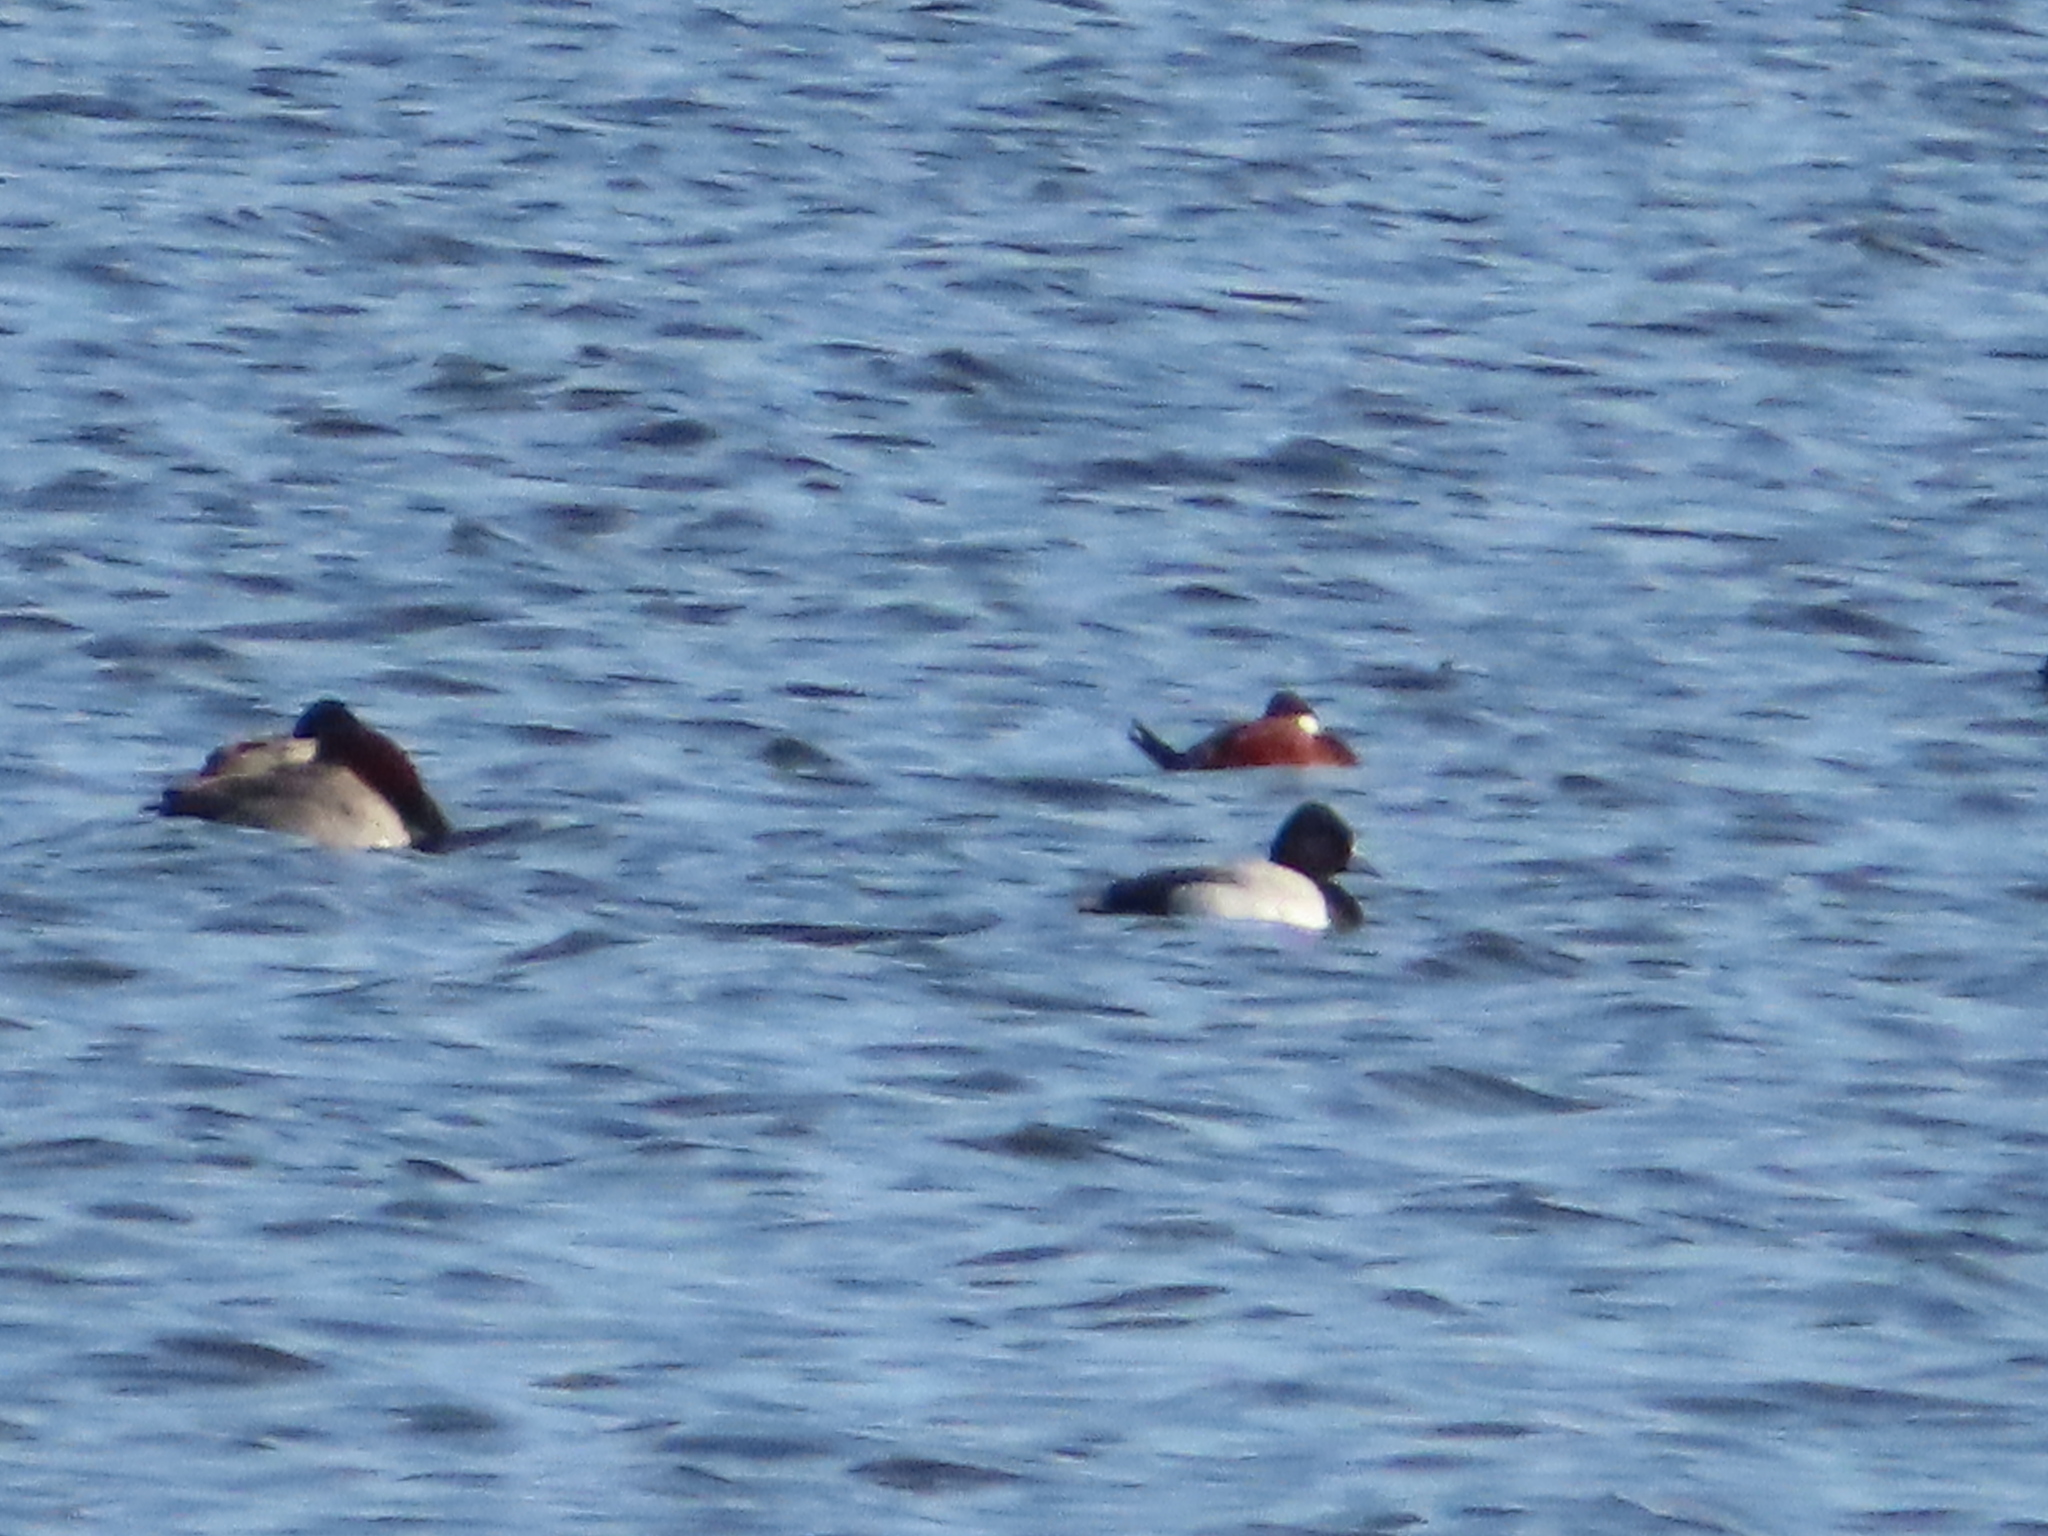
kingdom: Animalia
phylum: Chordata
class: Aves
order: Anseriformes
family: Anatidae
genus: Aythya
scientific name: Aythya affinis
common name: Lesser scaup
